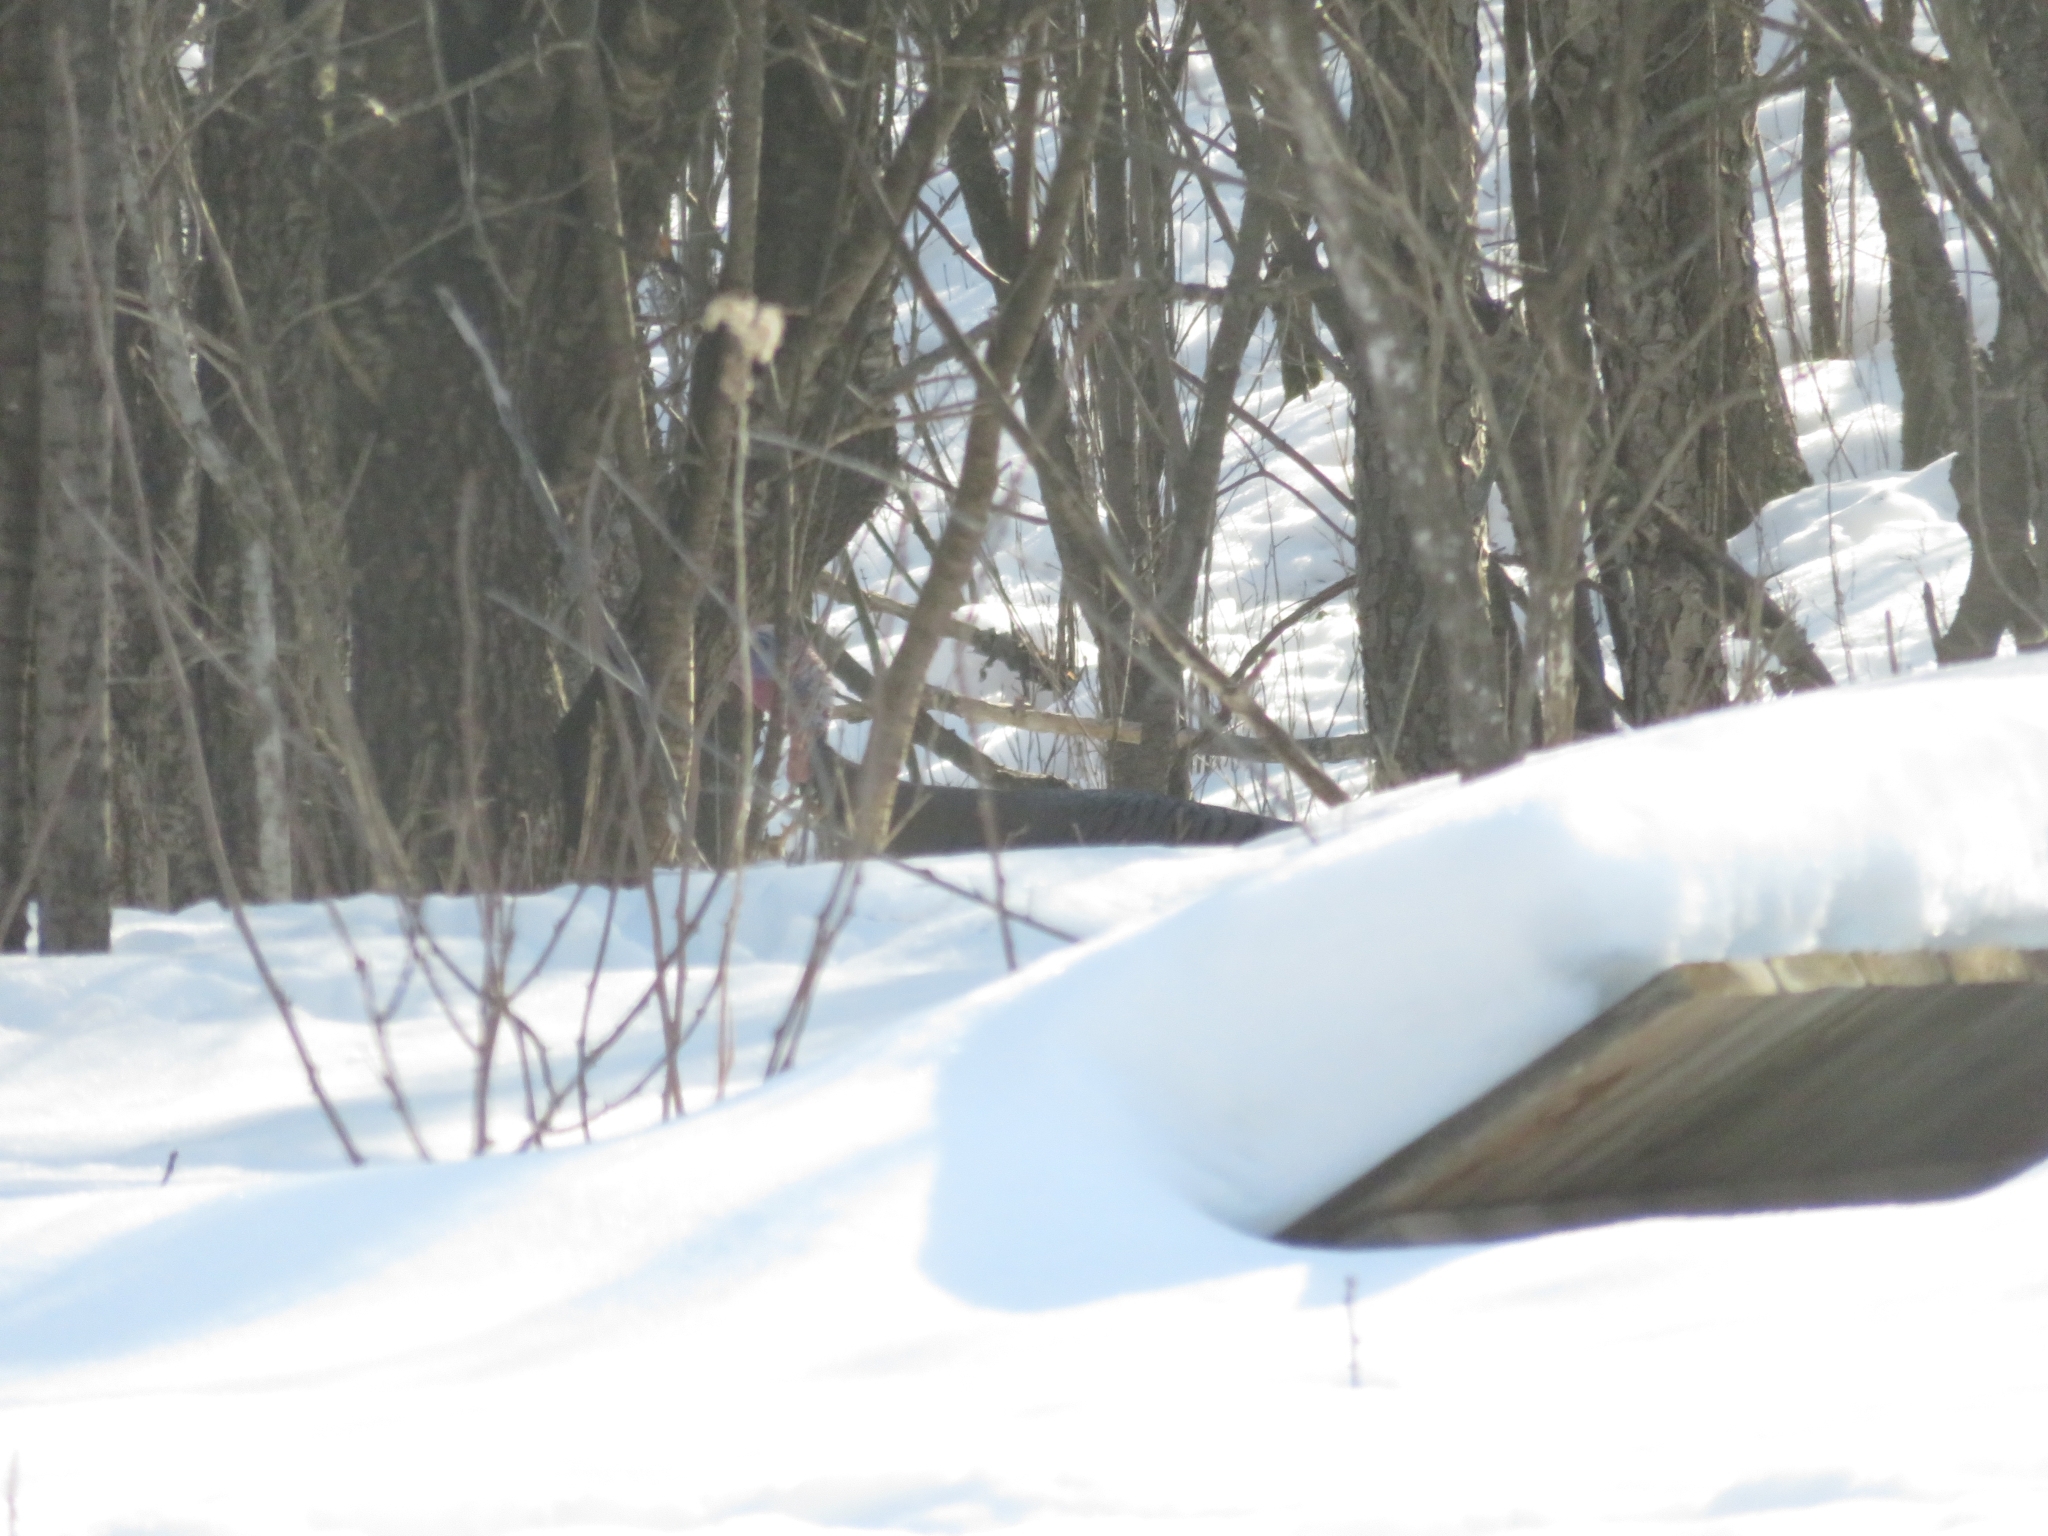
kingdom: Animalia
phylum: Chordata
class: Aves
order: Galliformes
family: Phasianidae
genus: Meleagris
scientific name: Meleagris gallopavo
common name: Wild turkey
